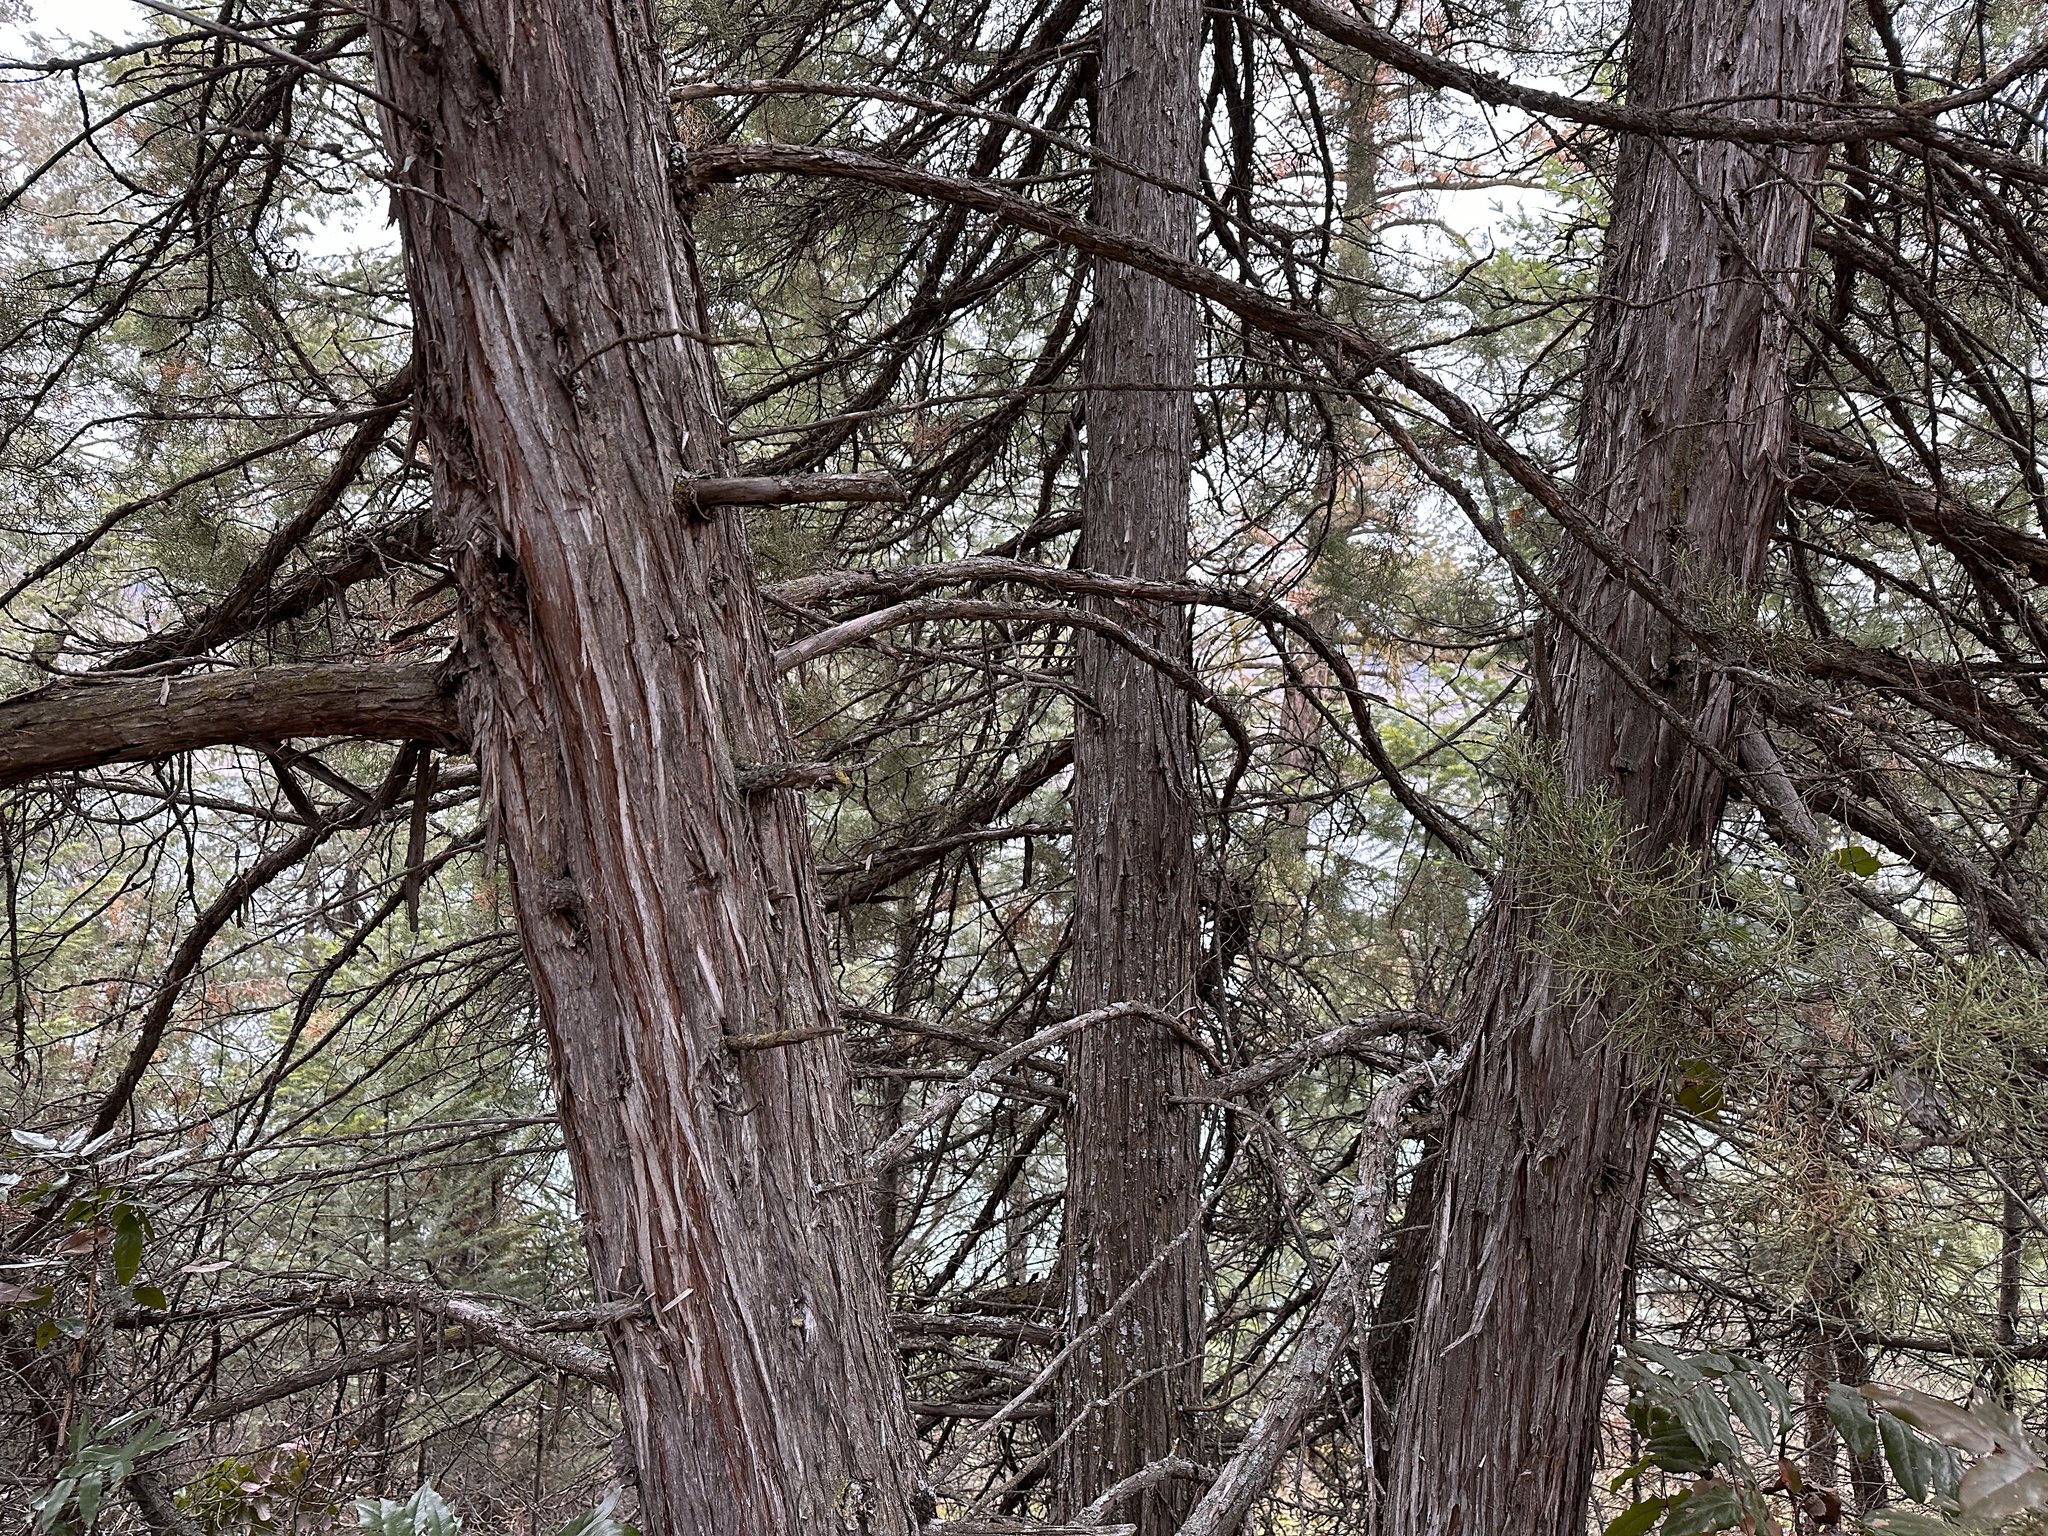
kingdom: Plantae
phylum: Tracheophyta
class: Pinopsida
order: Pinales
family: Cupressaceae
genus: Juniperus
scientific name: Juniperus scopulorum
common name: Rocky mountain juniper
